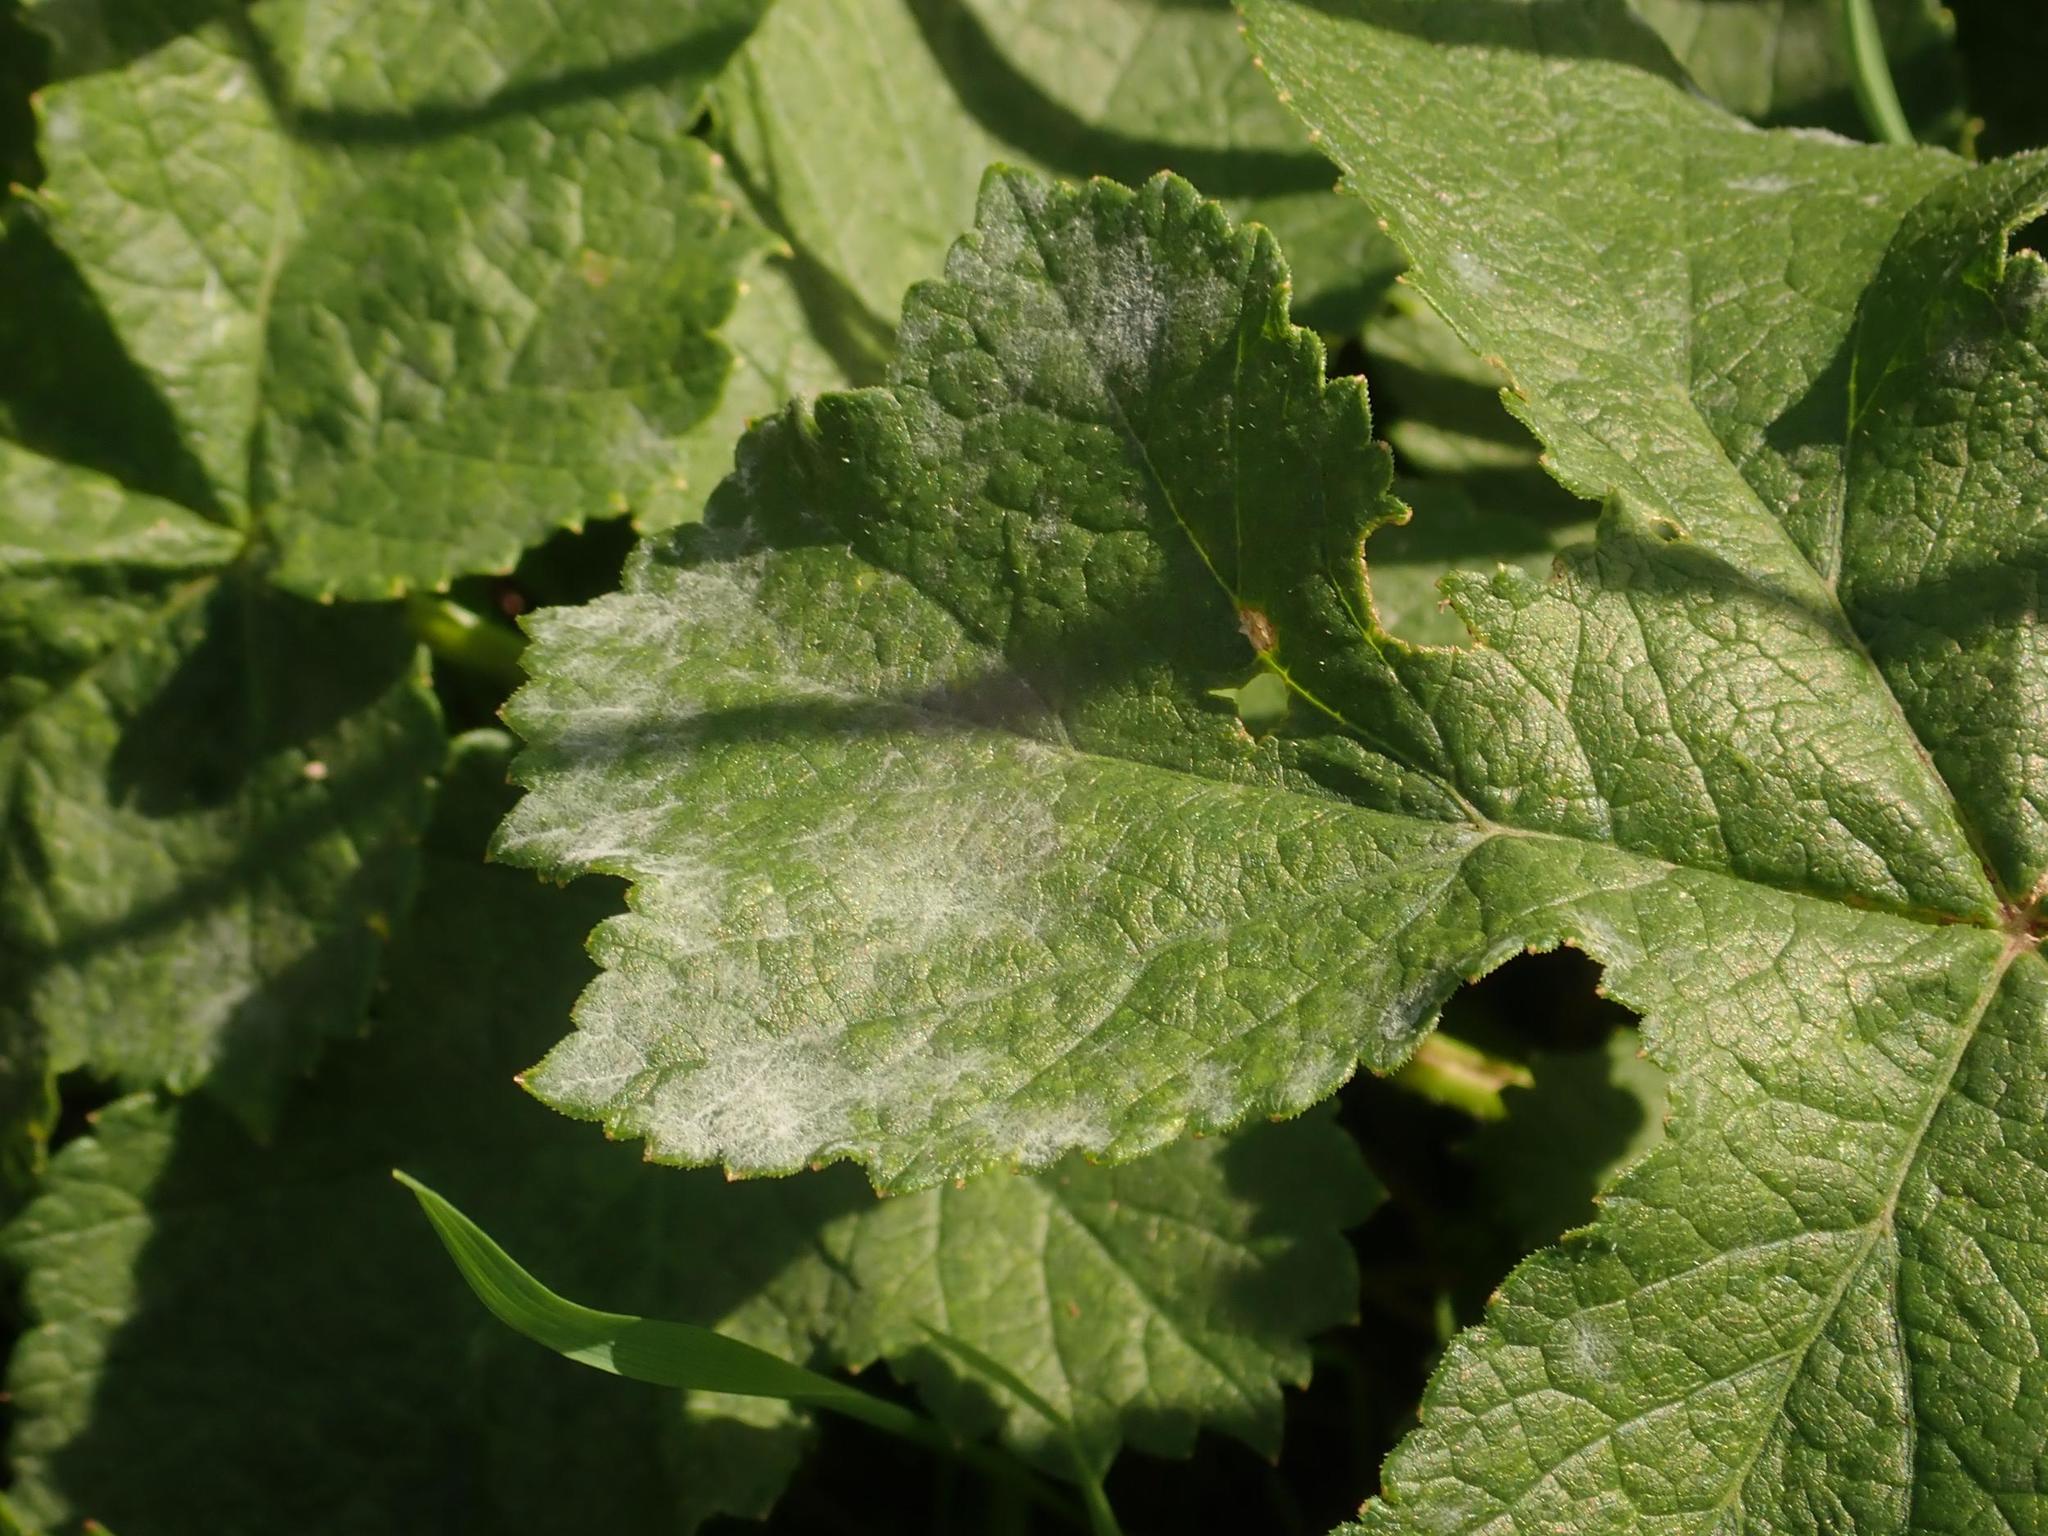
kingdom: Fungi
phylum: Ascomycota
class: Leotiomycetes
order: Helotiales
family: Erysiphaceae
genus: Erysiphe
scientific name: Erysiphe heraclei
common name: Umbellifer mildew
